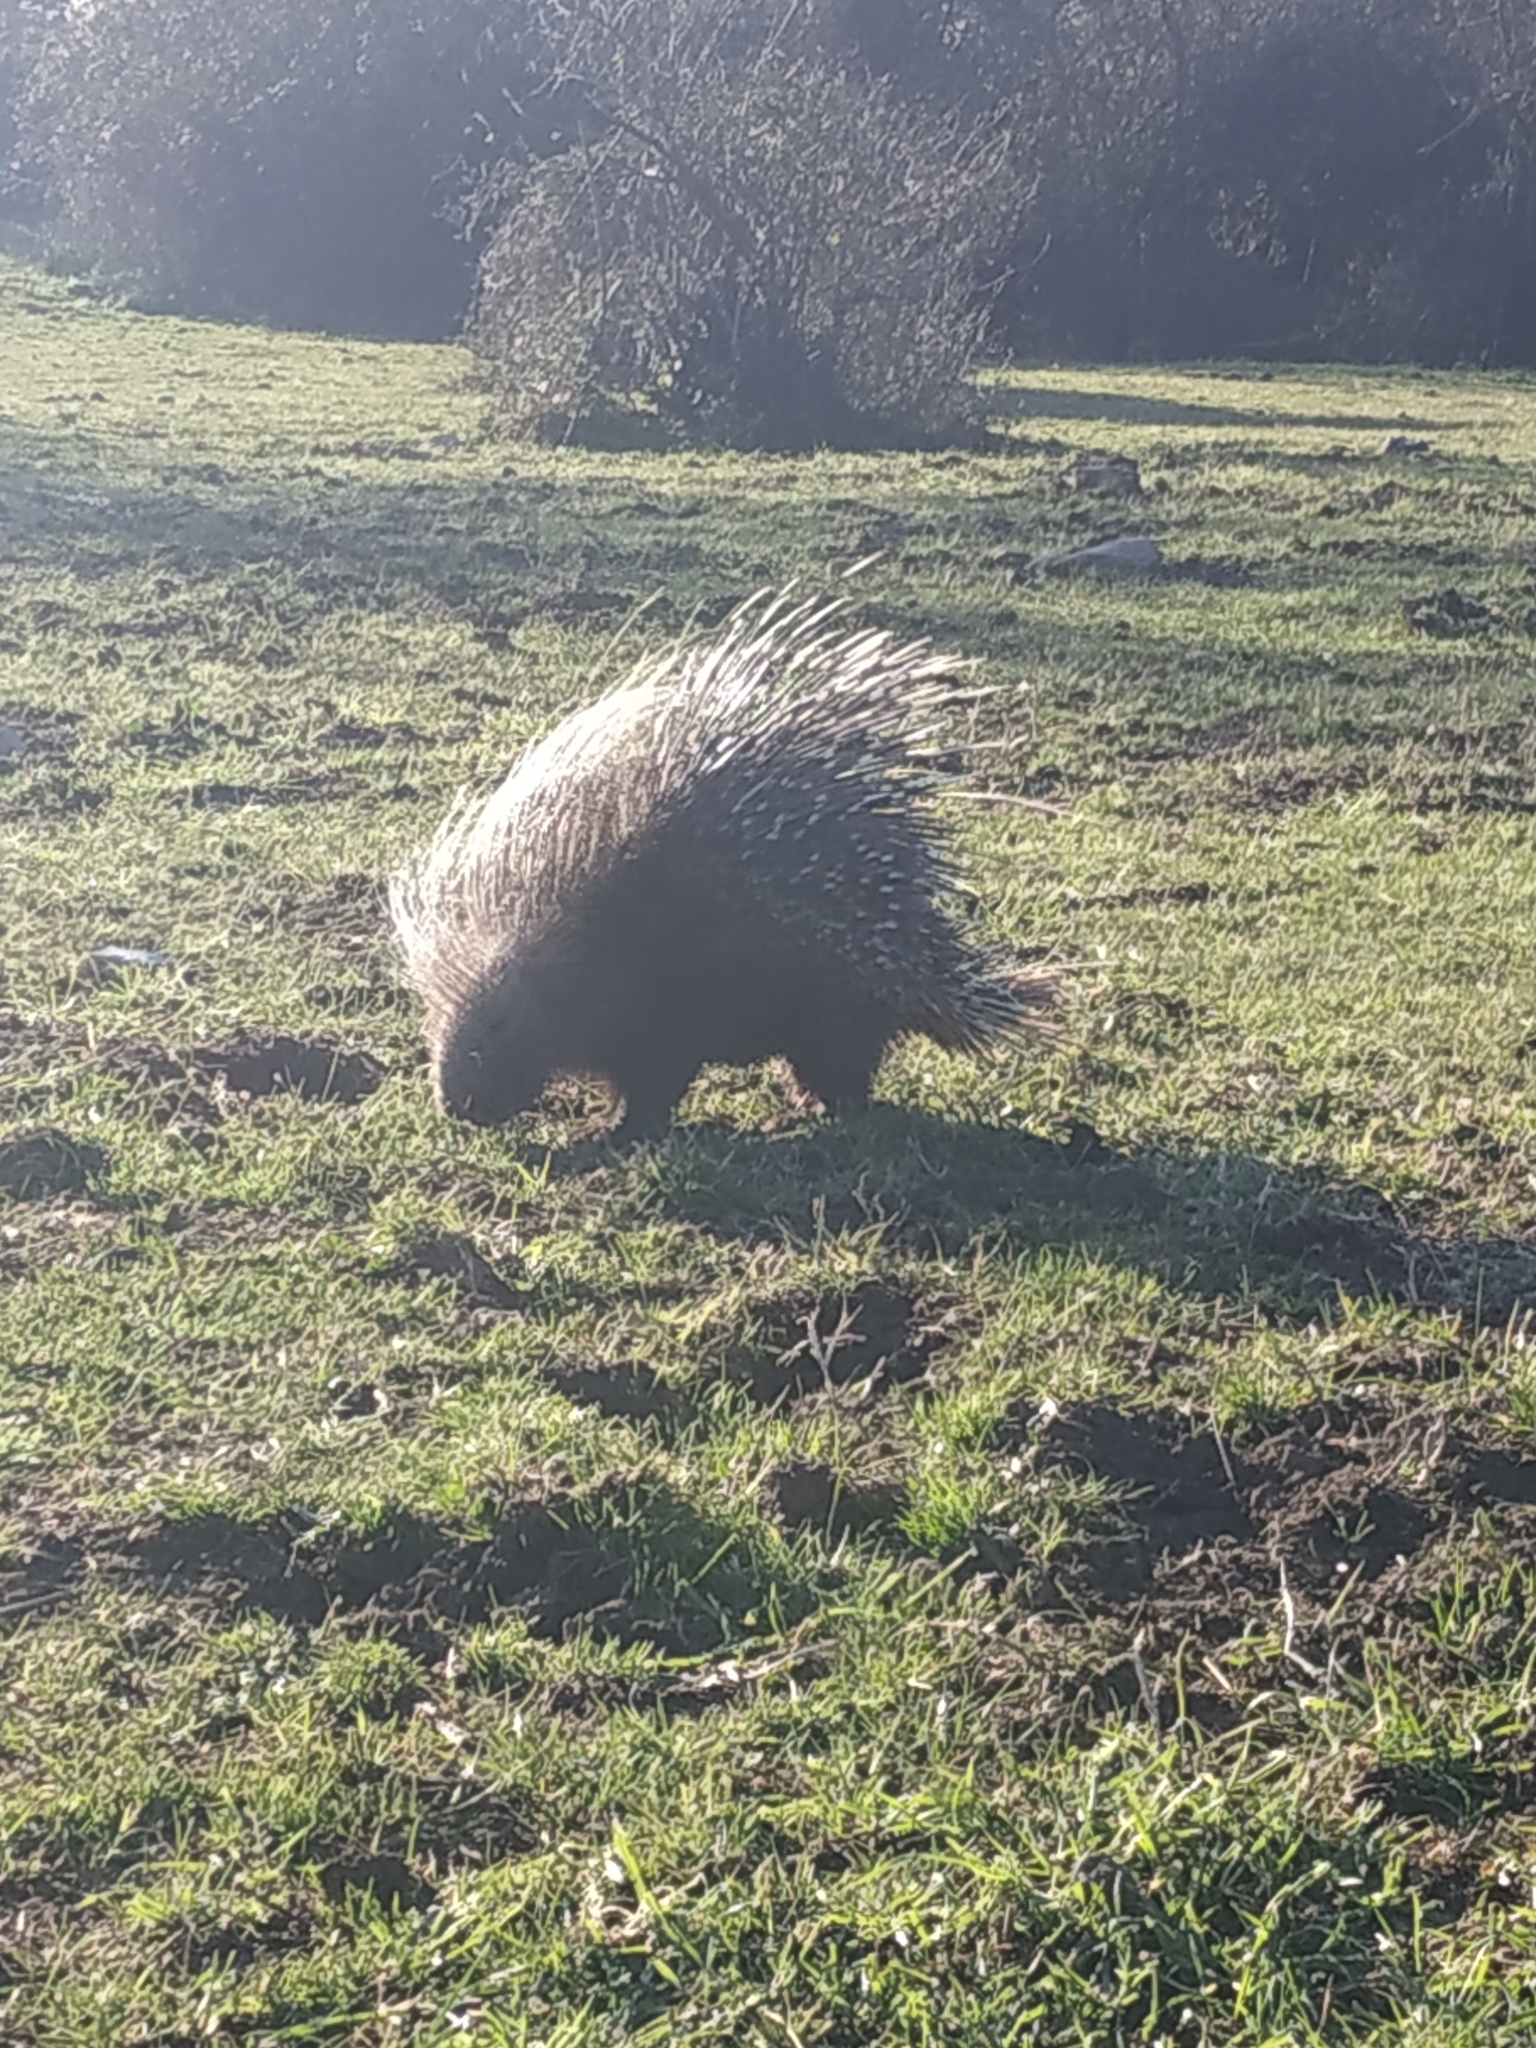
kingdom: Animalia
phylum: Chordata
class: Mammalia
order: Rodentia
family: Hystricidae
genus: Hystrix
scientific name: Hystrix cristata
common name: Crested porcupine
